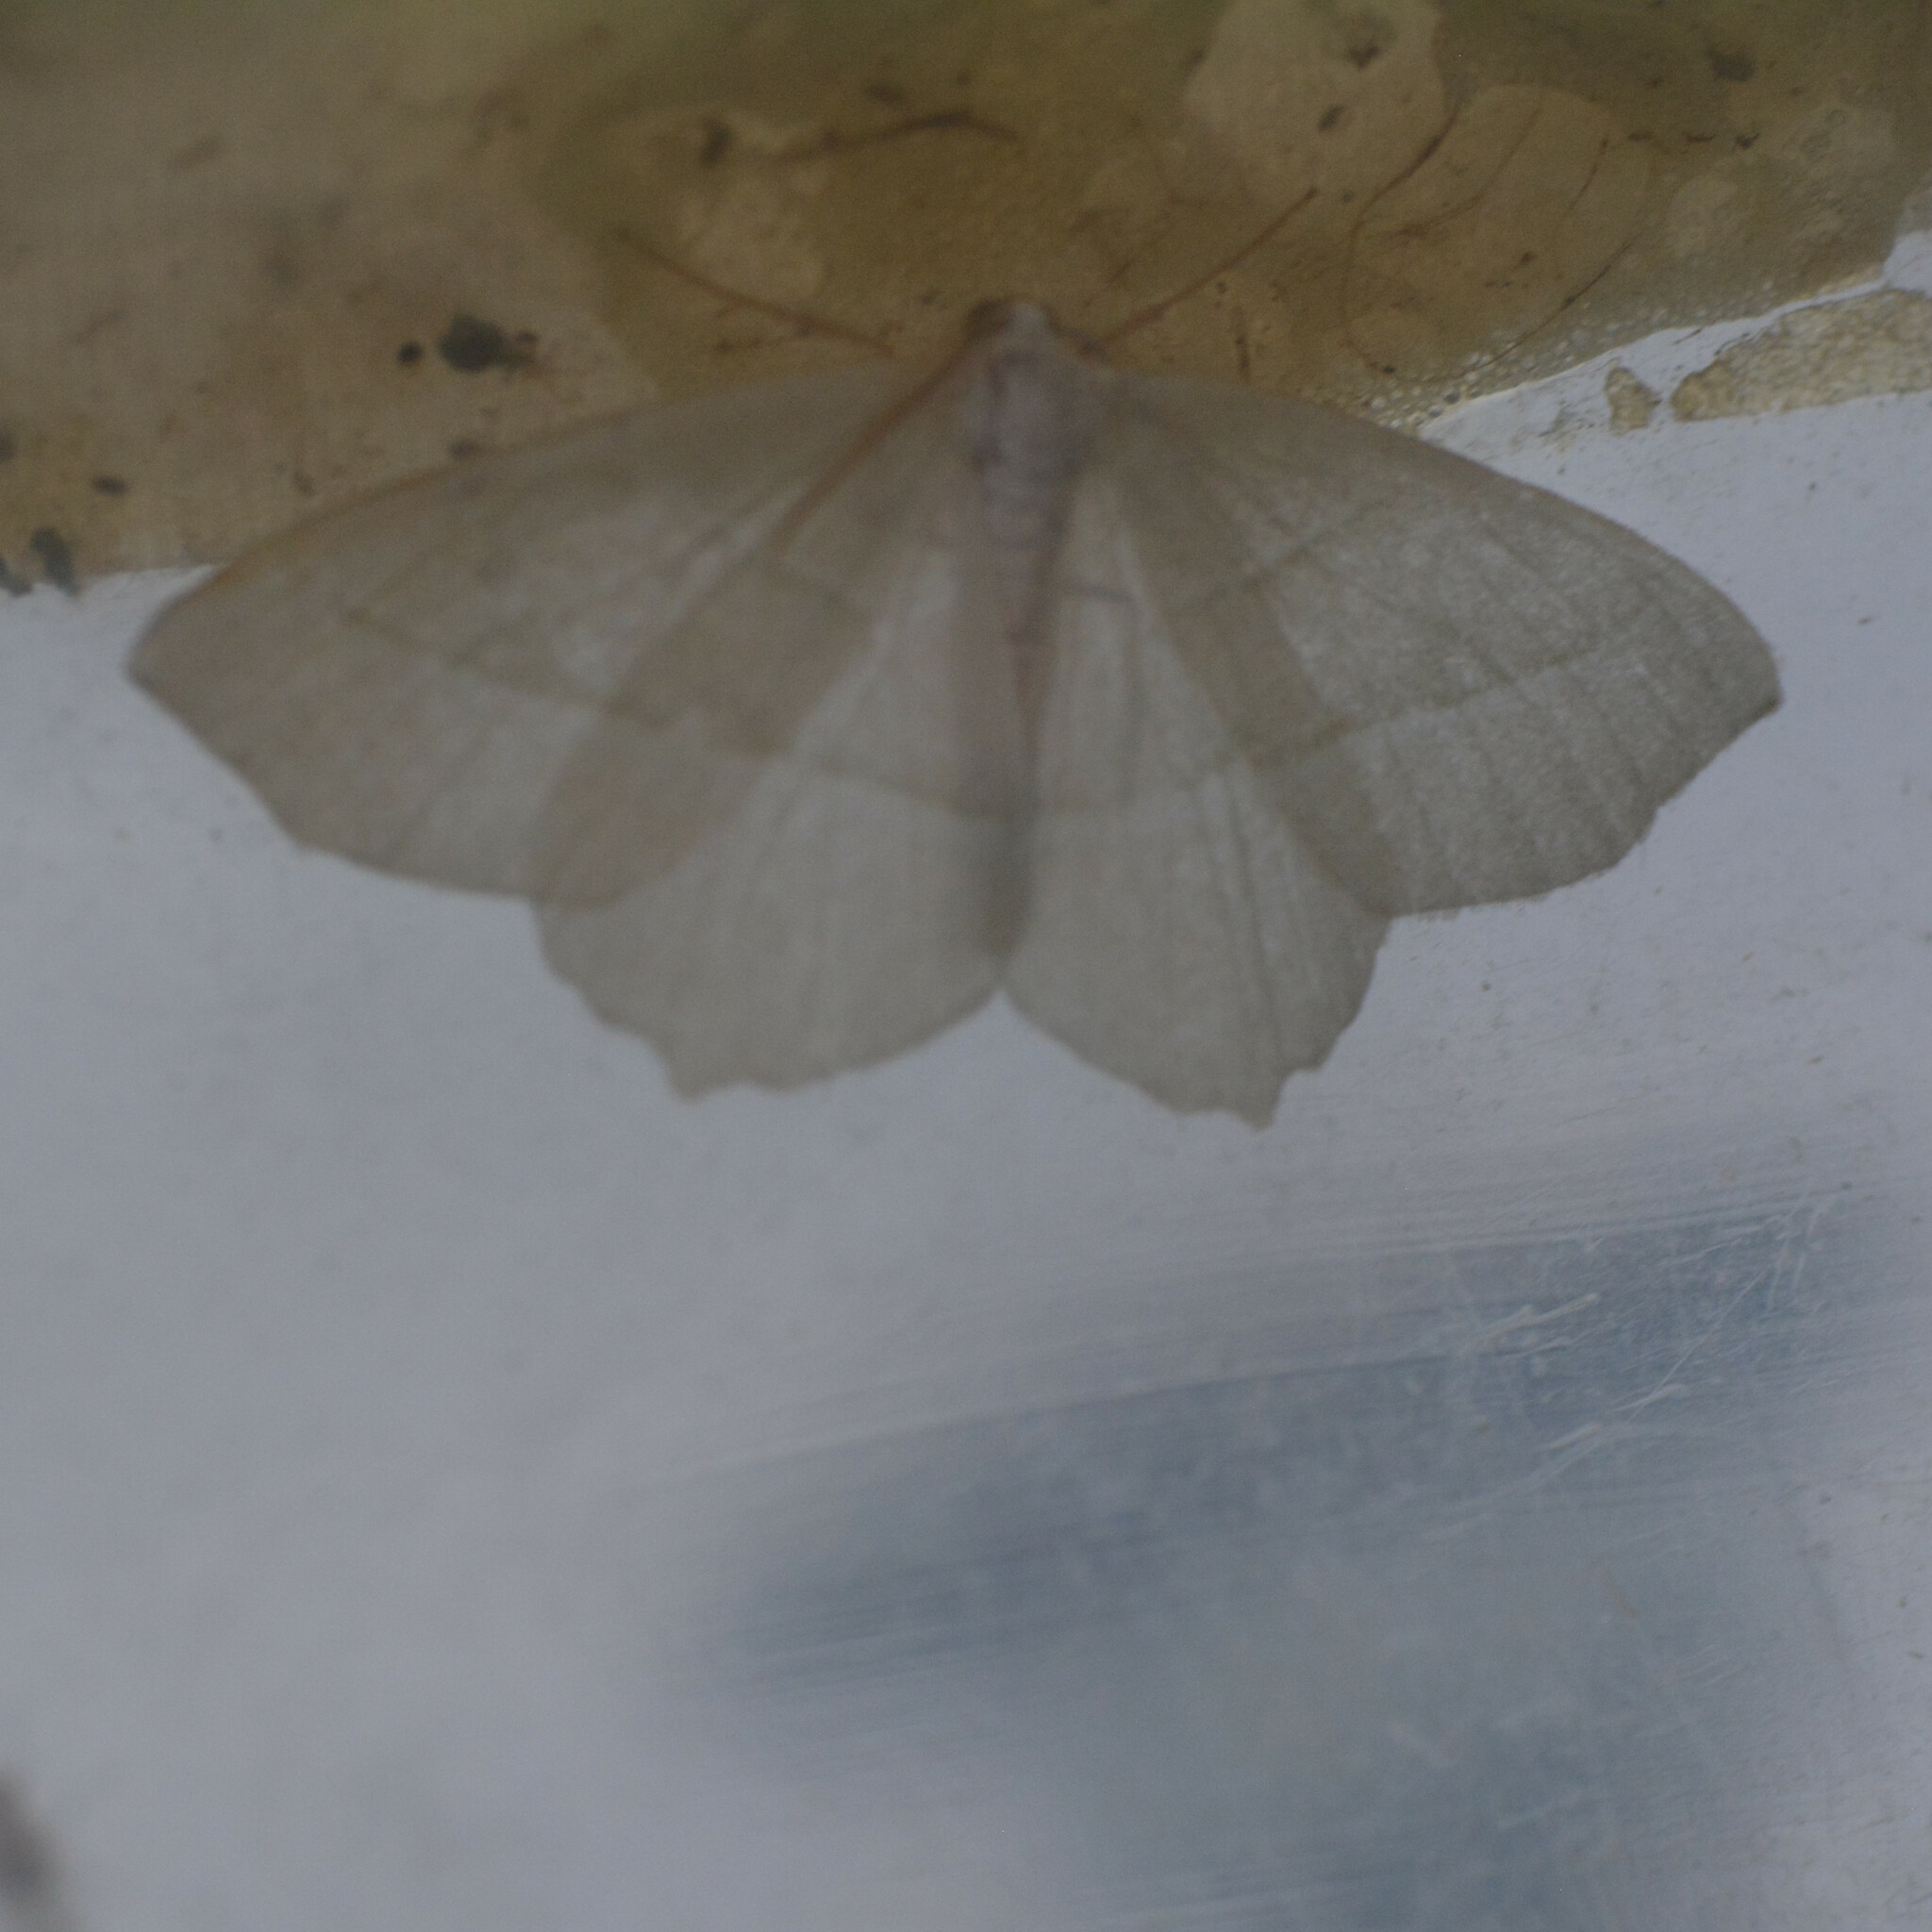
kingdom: Animalia
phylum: Arthropoda
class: Insecta
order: Lepidoptera
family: Geometridae
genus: Campaea
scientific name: Campaea margaritaria
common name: Light emerald
